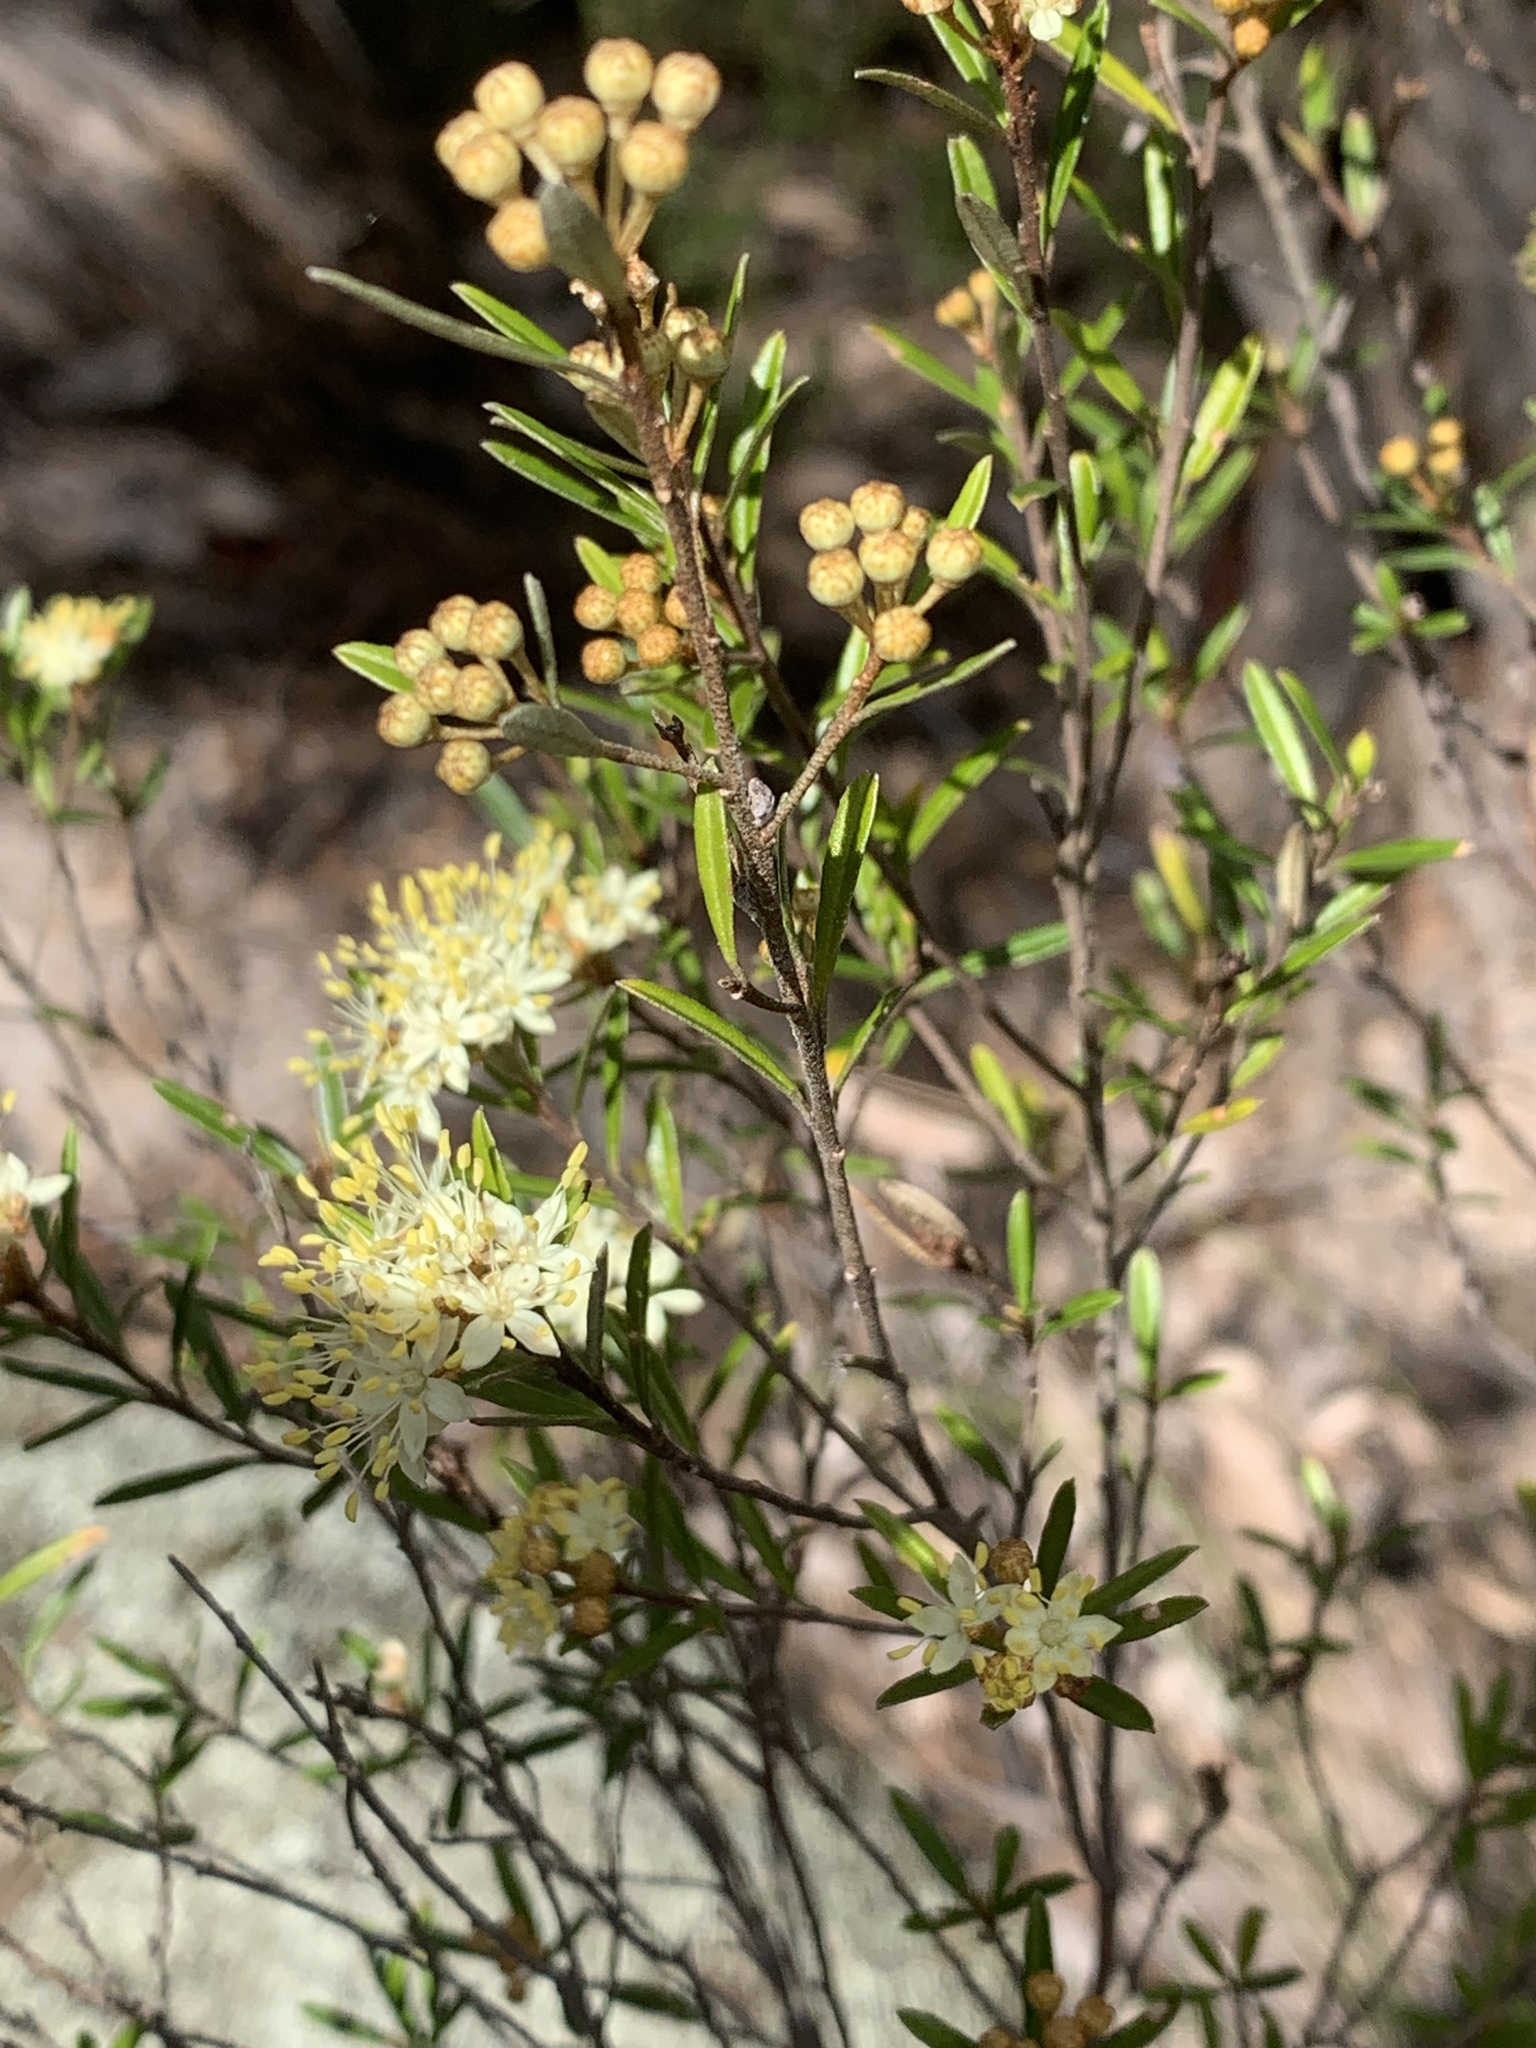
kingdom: Plantae
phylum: Tracheophyta
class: Magnoliopsida
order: Sapindales
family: Rutaceae
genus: Phebalium
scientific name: Phebalium squamulosum
